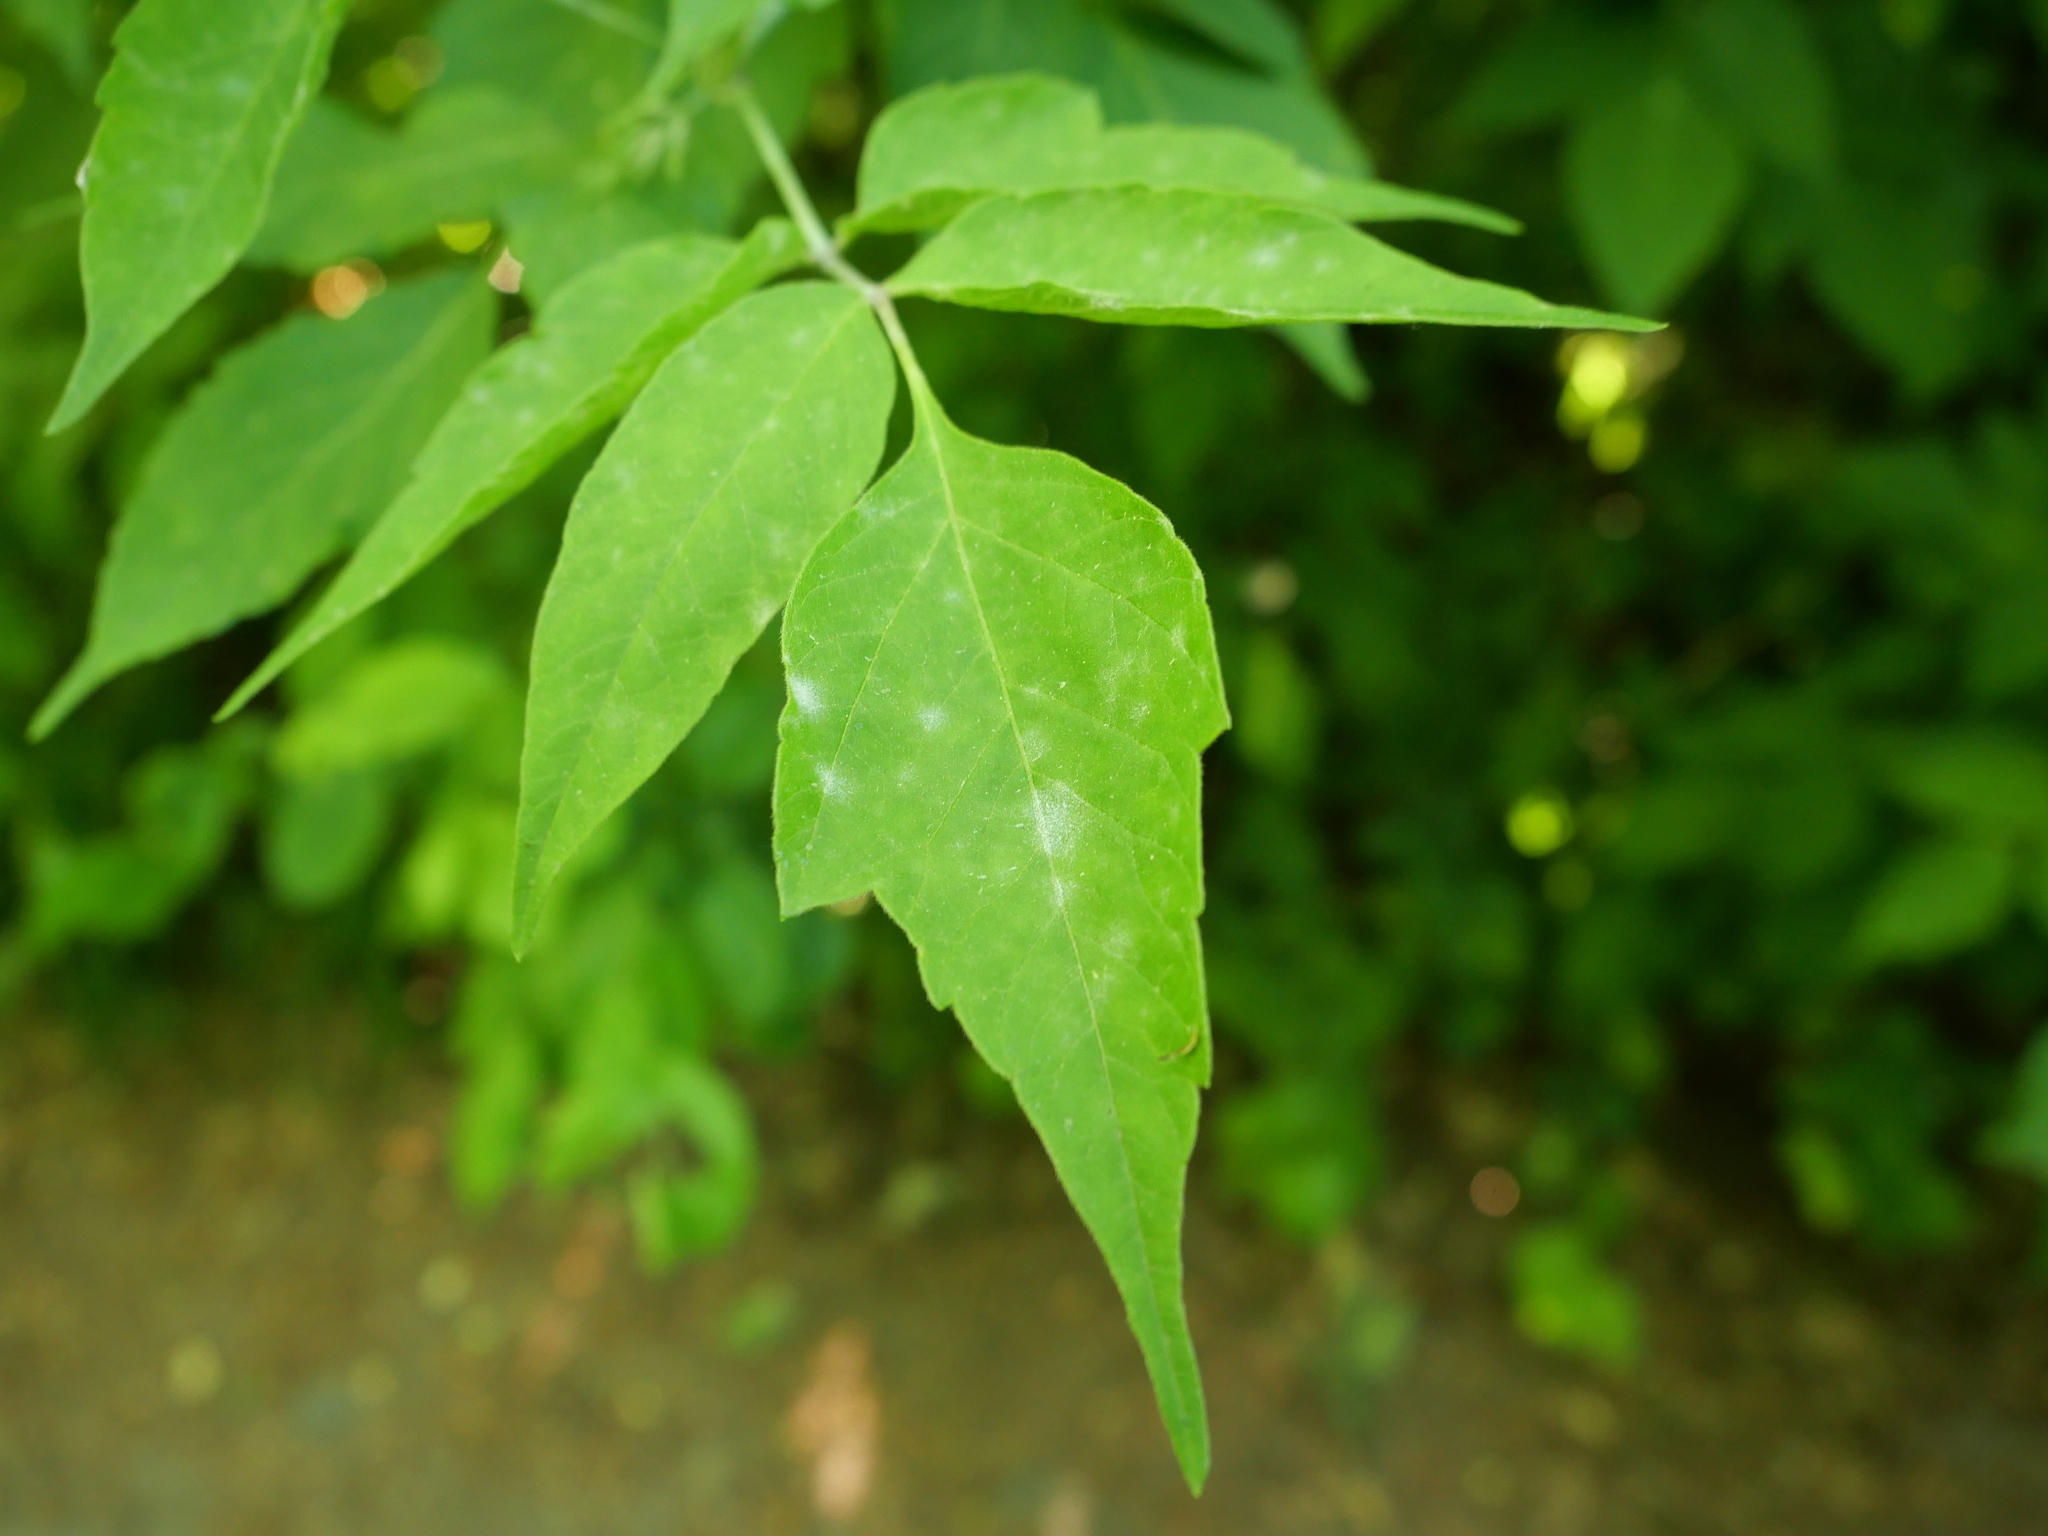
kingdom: Plantae
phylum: Tracheophyta
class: Magnoliopsida
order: Sapindales
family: Sapindaceae
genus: Acer
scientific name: Acer negundo
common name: Ashleaf maple
